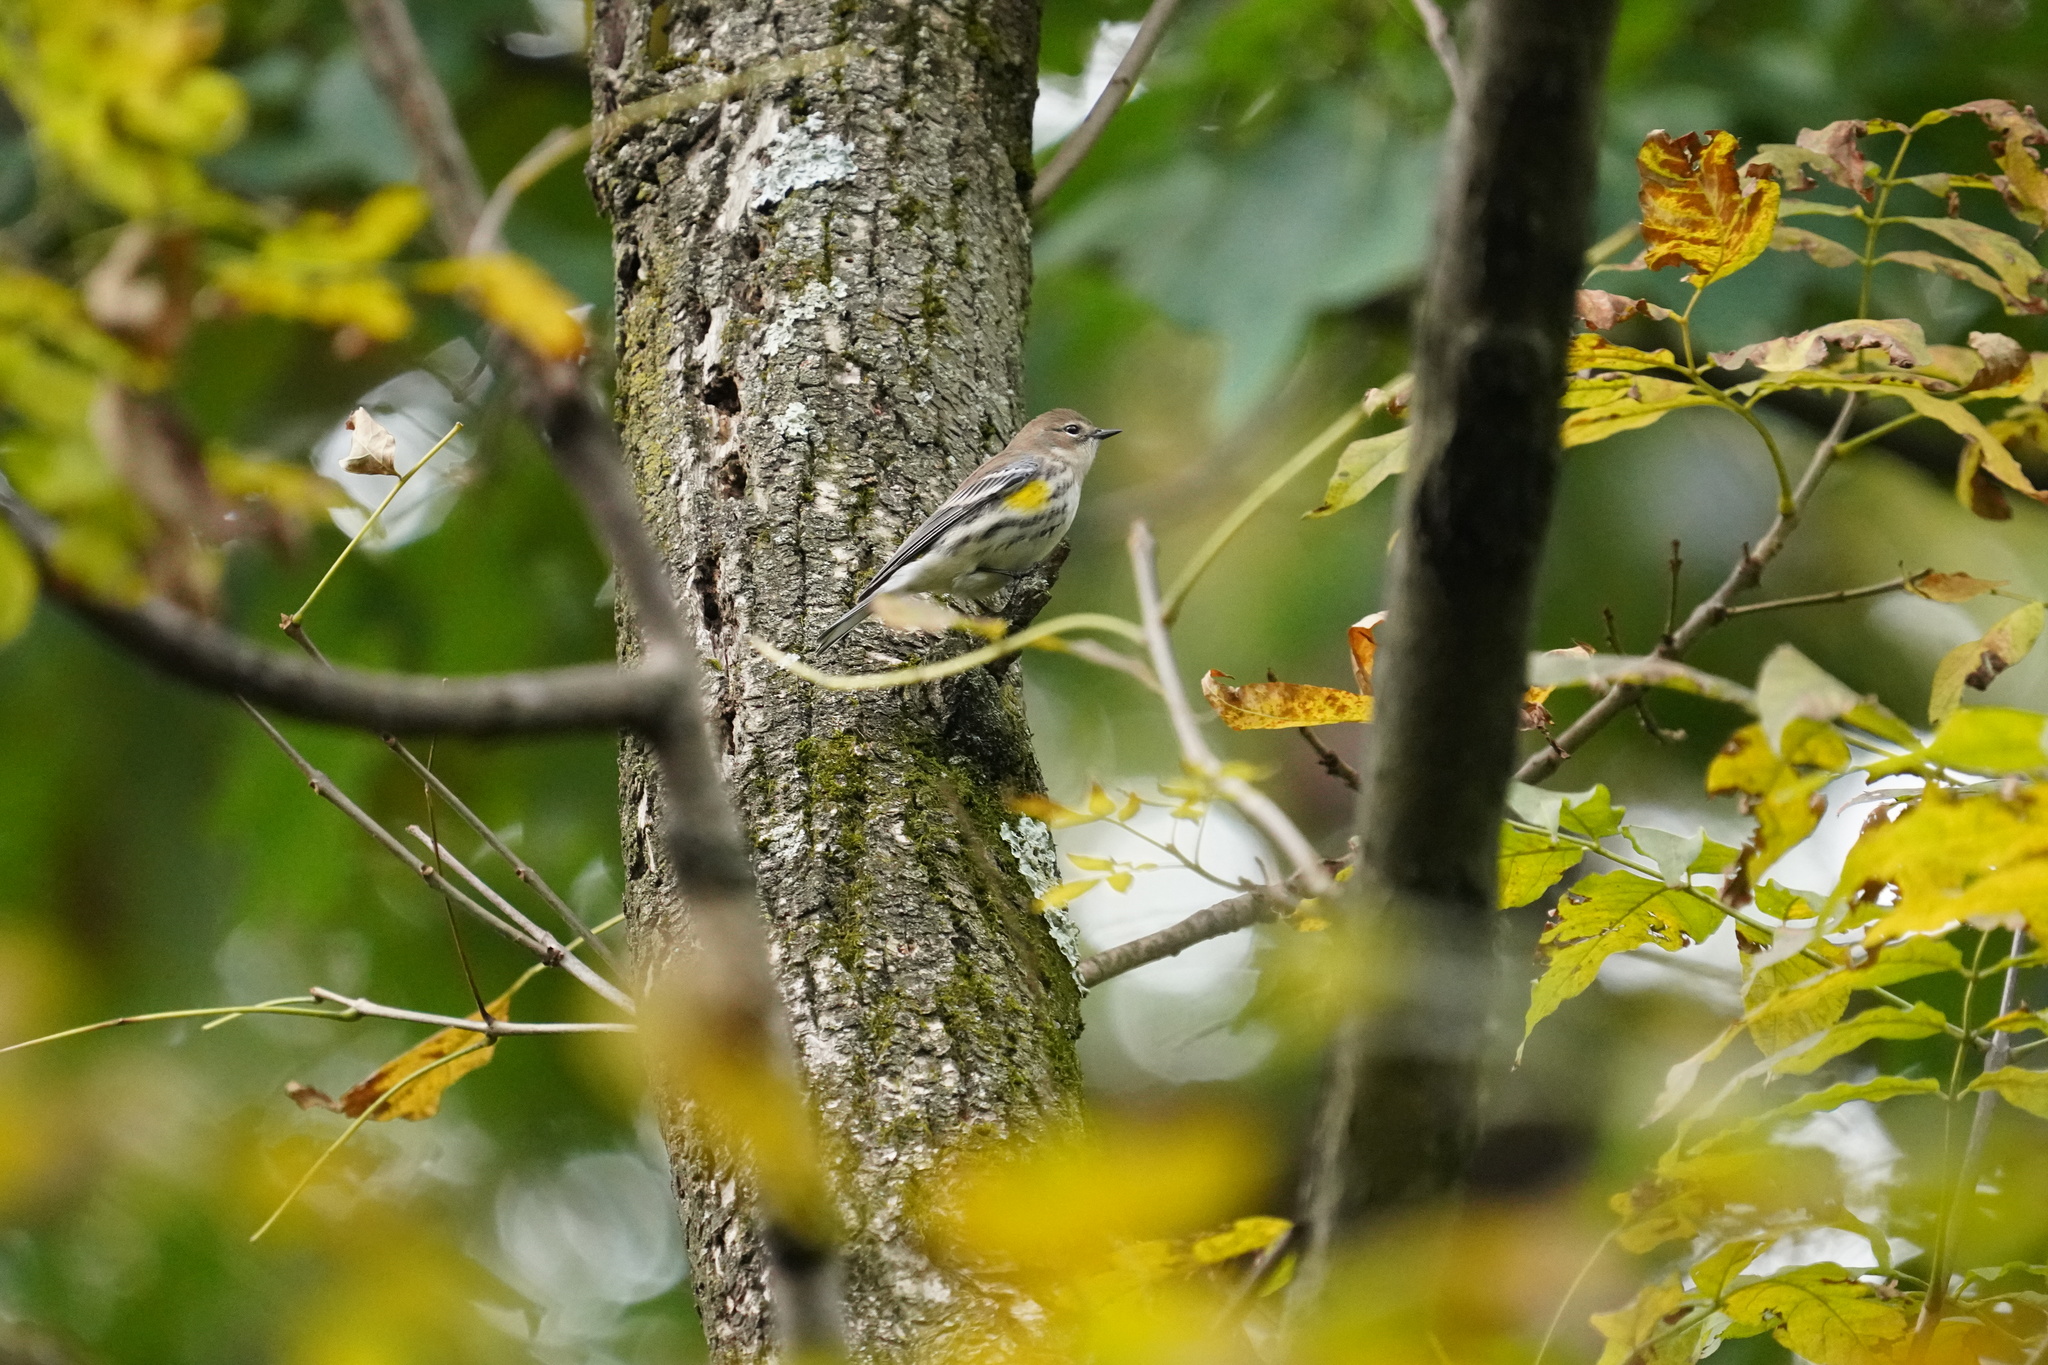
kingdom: Animalia
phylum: Chordata
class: Aves
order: Passeriformes
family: Parulidae
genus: Setophaga
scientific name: Setophaga coronata
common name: Myrtle warbler
